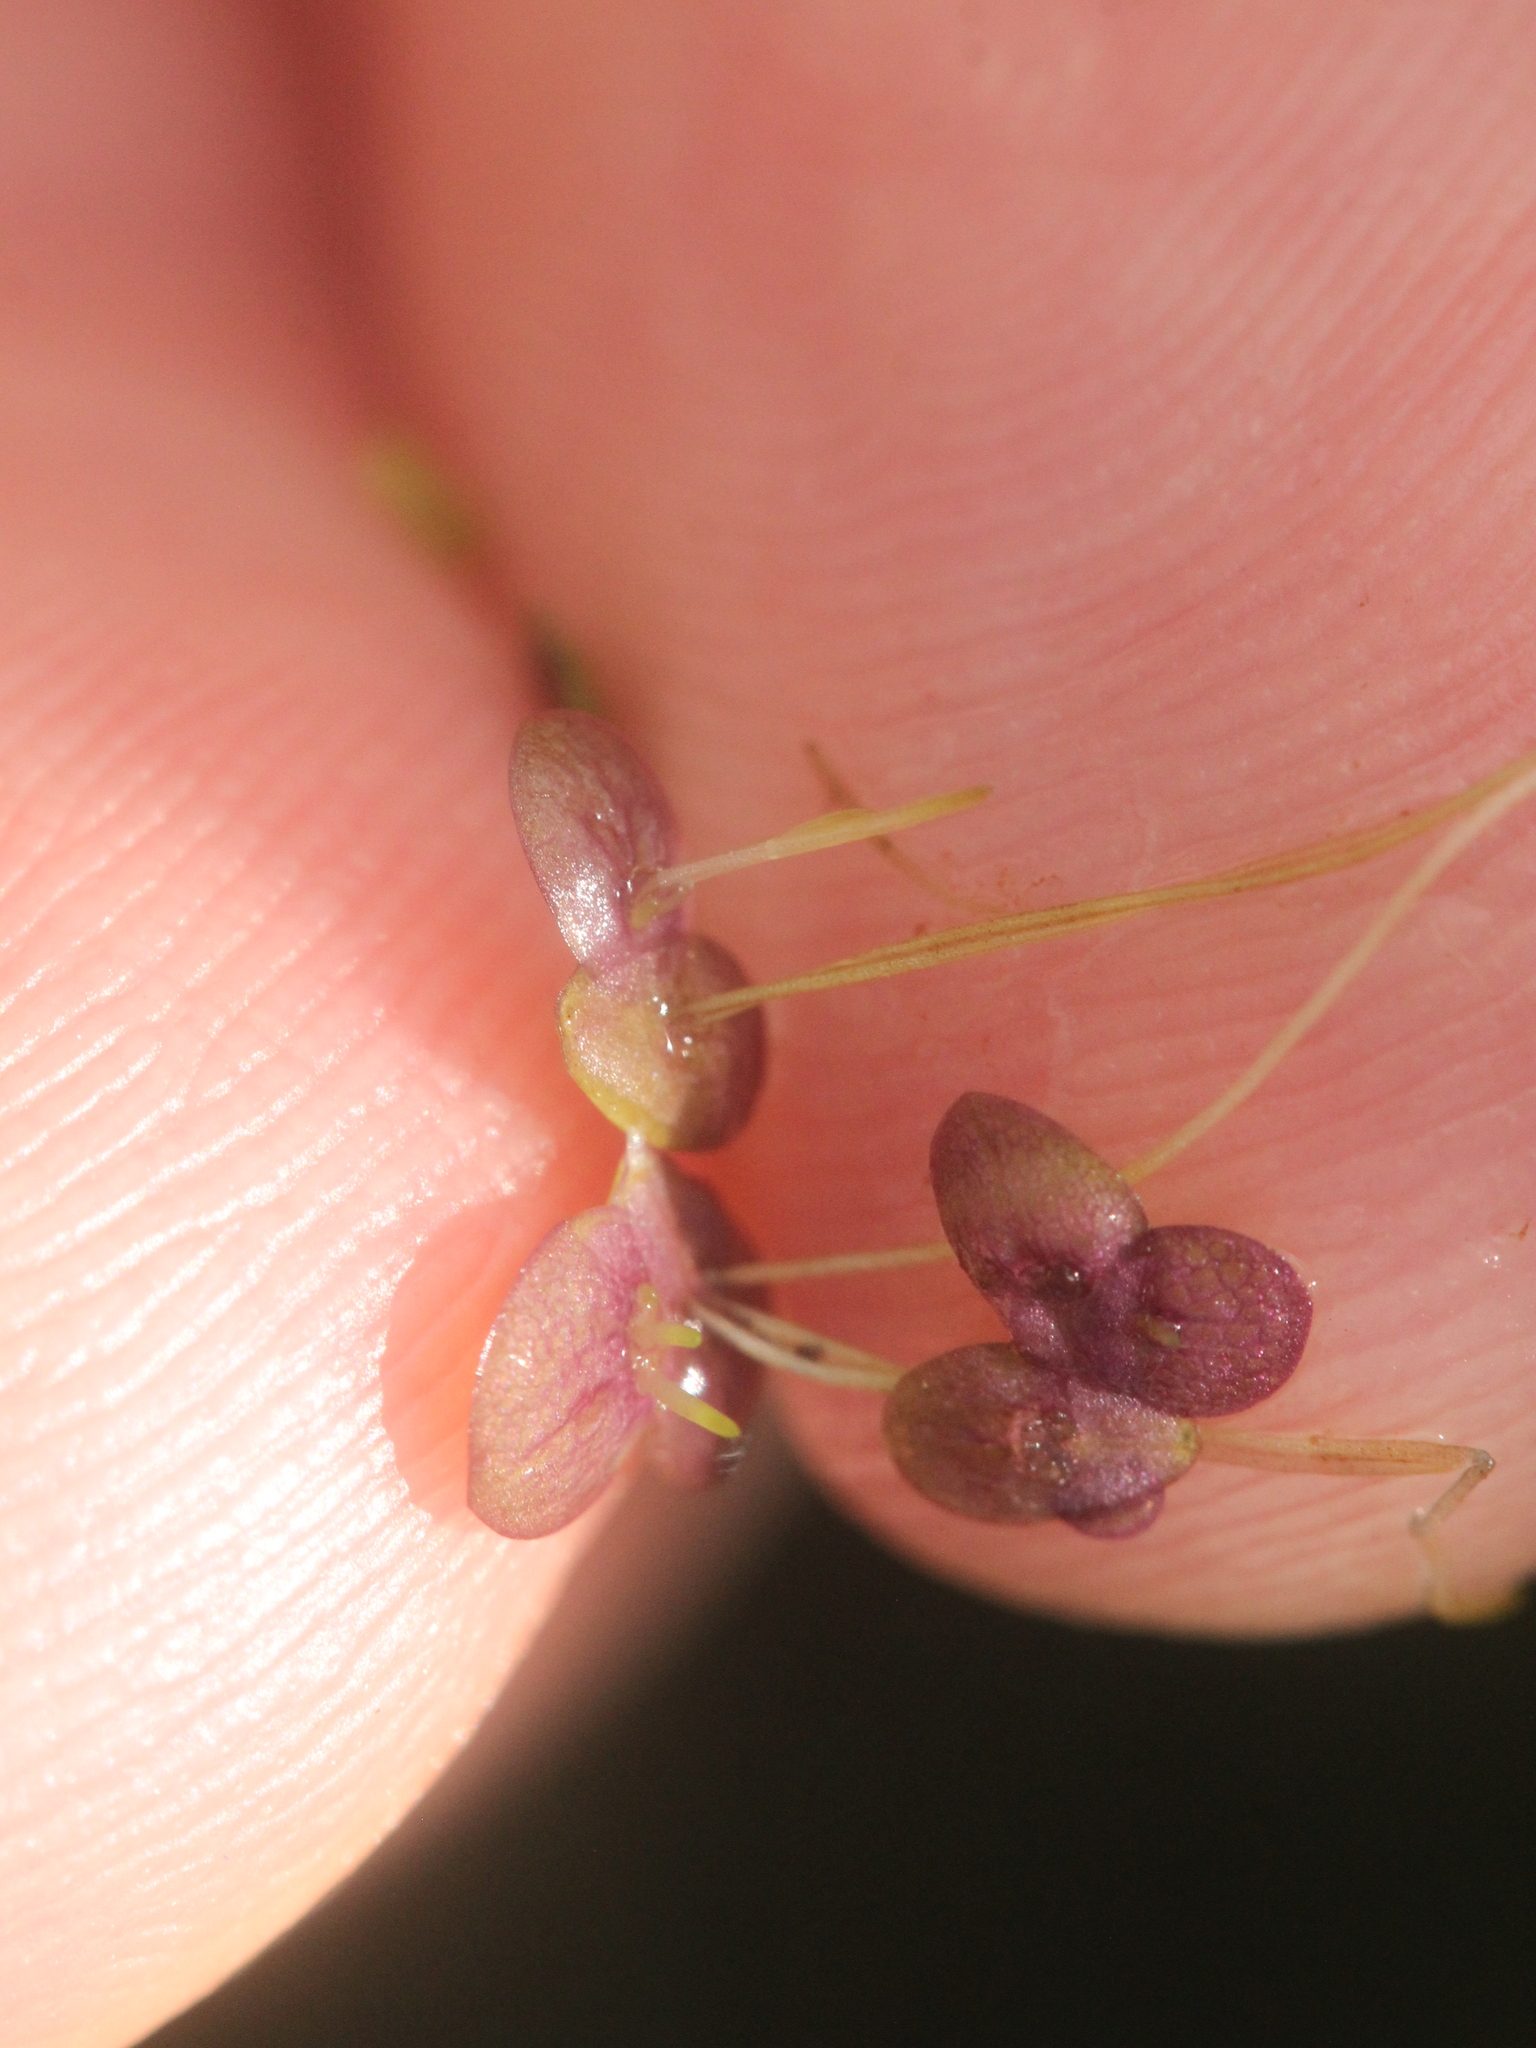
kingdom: Plantae
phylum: Tracheophyta
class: Liliopsida
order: Alismatales
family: Araceae
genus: Spirodela
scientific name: Spirodela punctata
